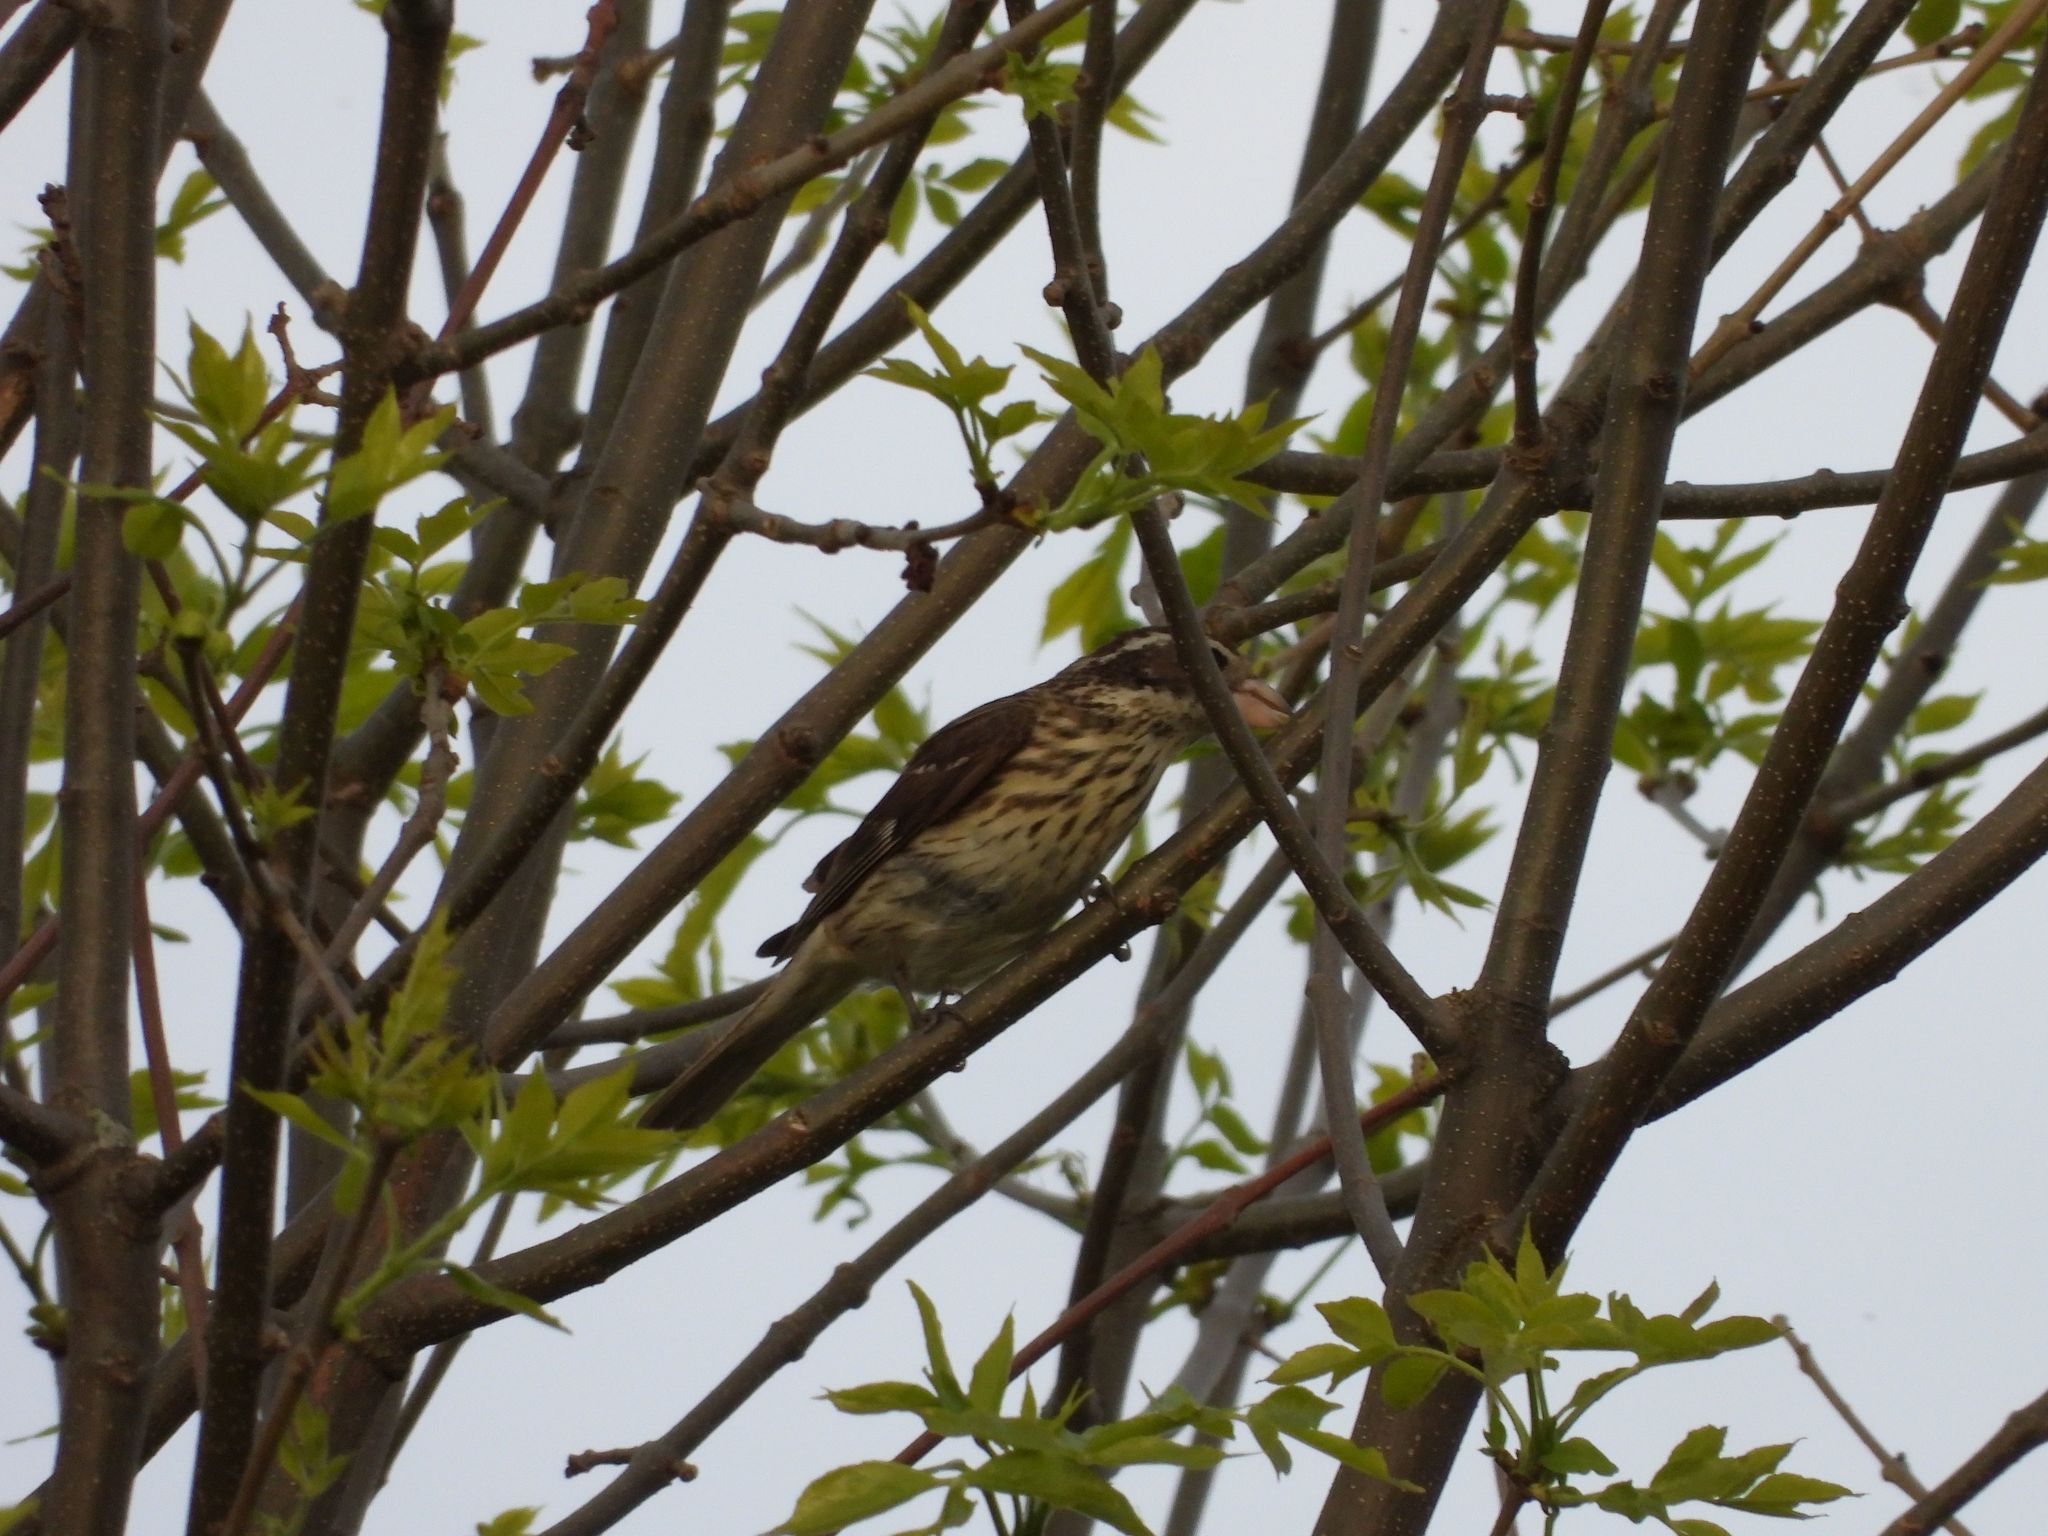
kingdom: Animalia
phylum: Chordata
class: Aves
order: Passeriformes
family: Cardinalidae
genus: Pheucticus
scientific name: Pheucticus ludovicianus
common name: Rose-breasted grosbeak
